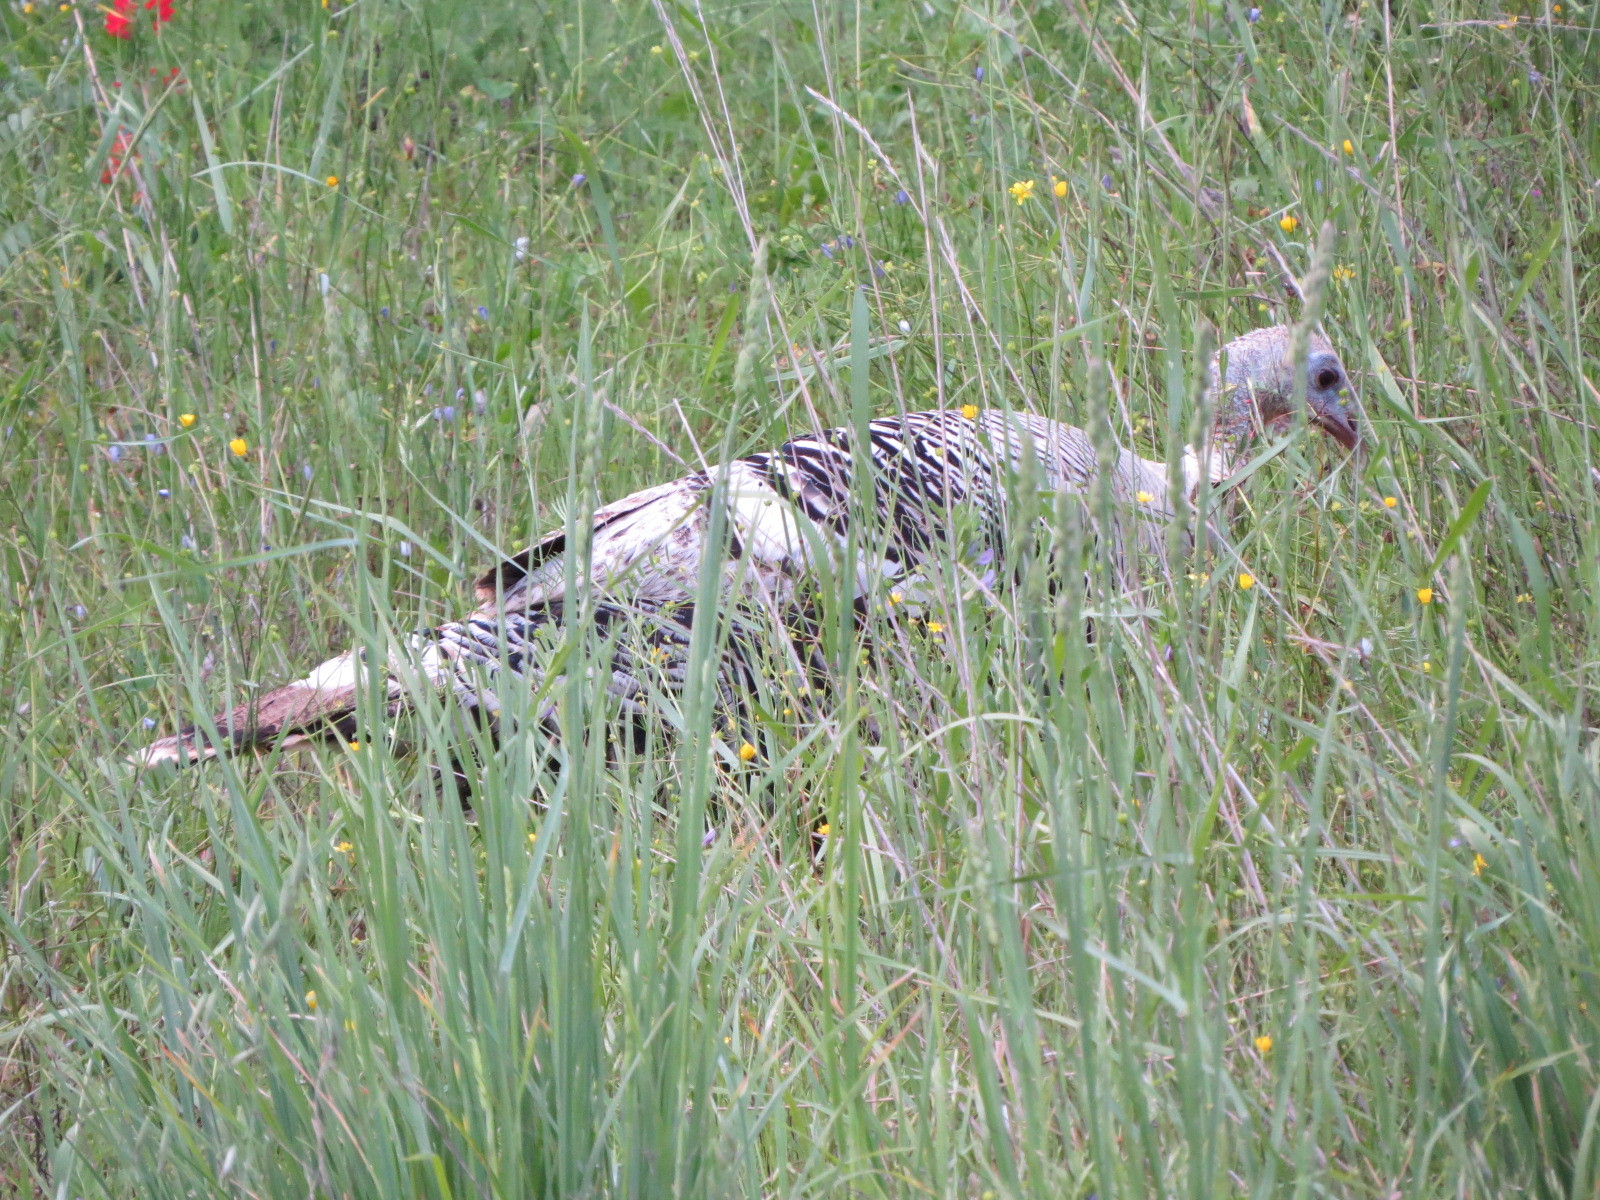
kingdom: Animalia
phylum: Chordata
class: Aves
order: Galliformes
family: Phasianidae
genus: Meleagris
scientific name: Meleagris gallopavo
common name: Wild turkey
